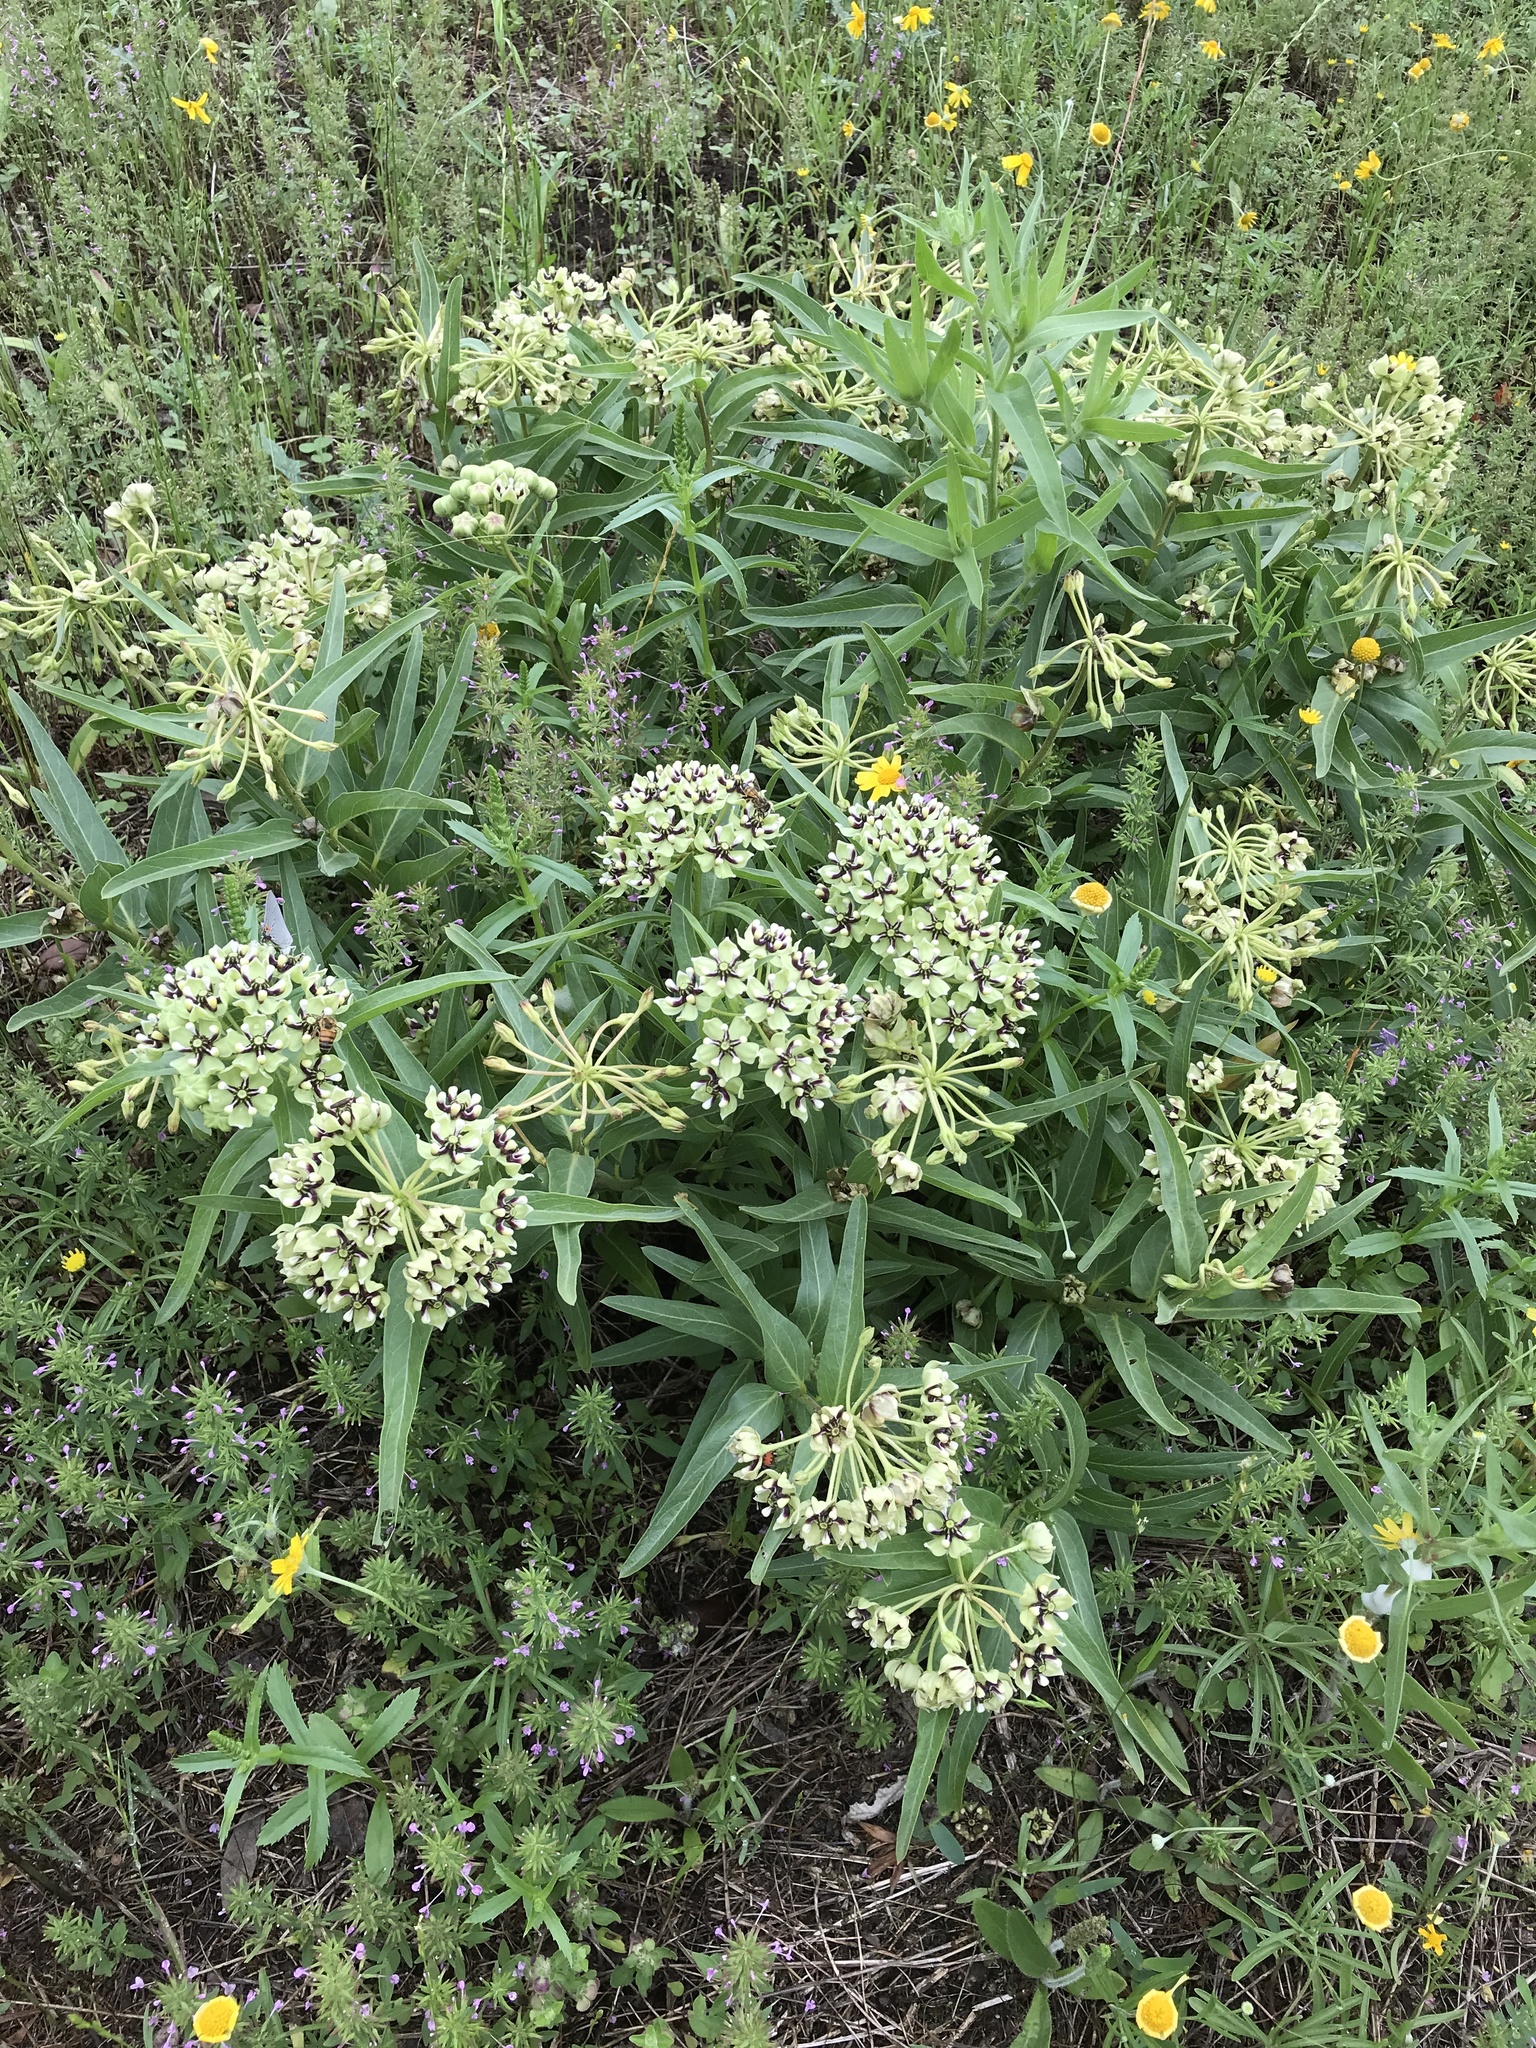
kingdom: Plantae
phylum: Tracheophyta
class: Magnoliopsida
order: Gentianales
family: Apocynaceae
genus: Asclepias
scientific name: Asclepias asperula
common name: Antelope horns
